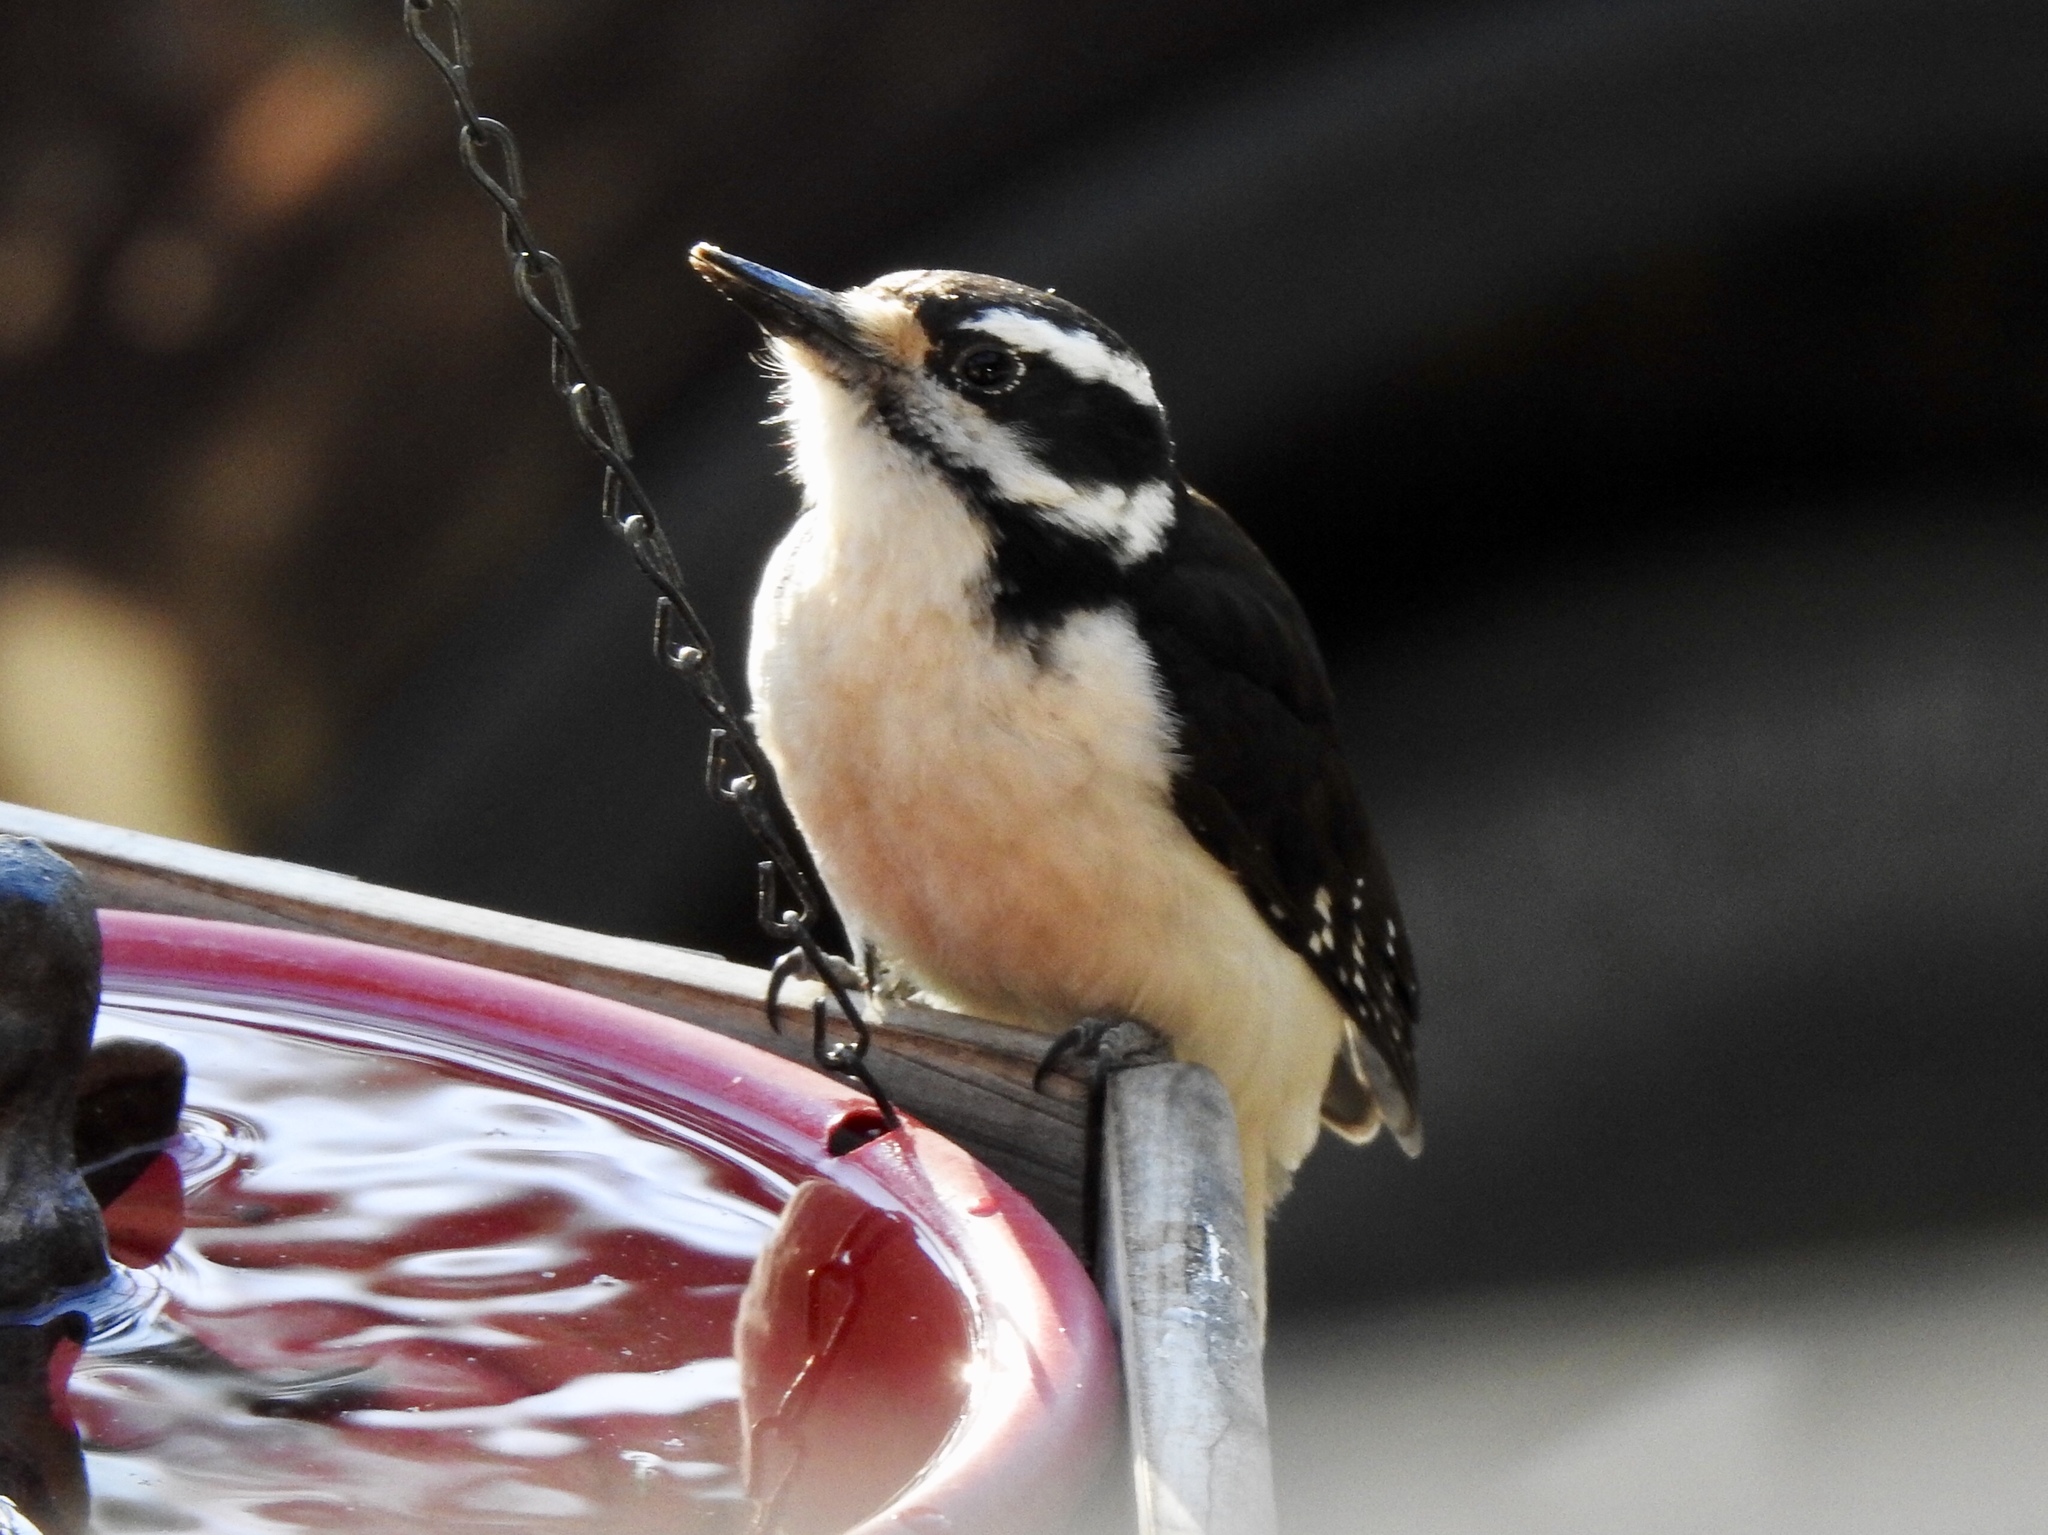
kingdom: Animalia
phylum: Chordata
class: Aves
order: Piciformes
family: Picidae
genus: Leuconotopicus
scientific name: Leuconotopicus villosus
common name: Hairy woodpecker
